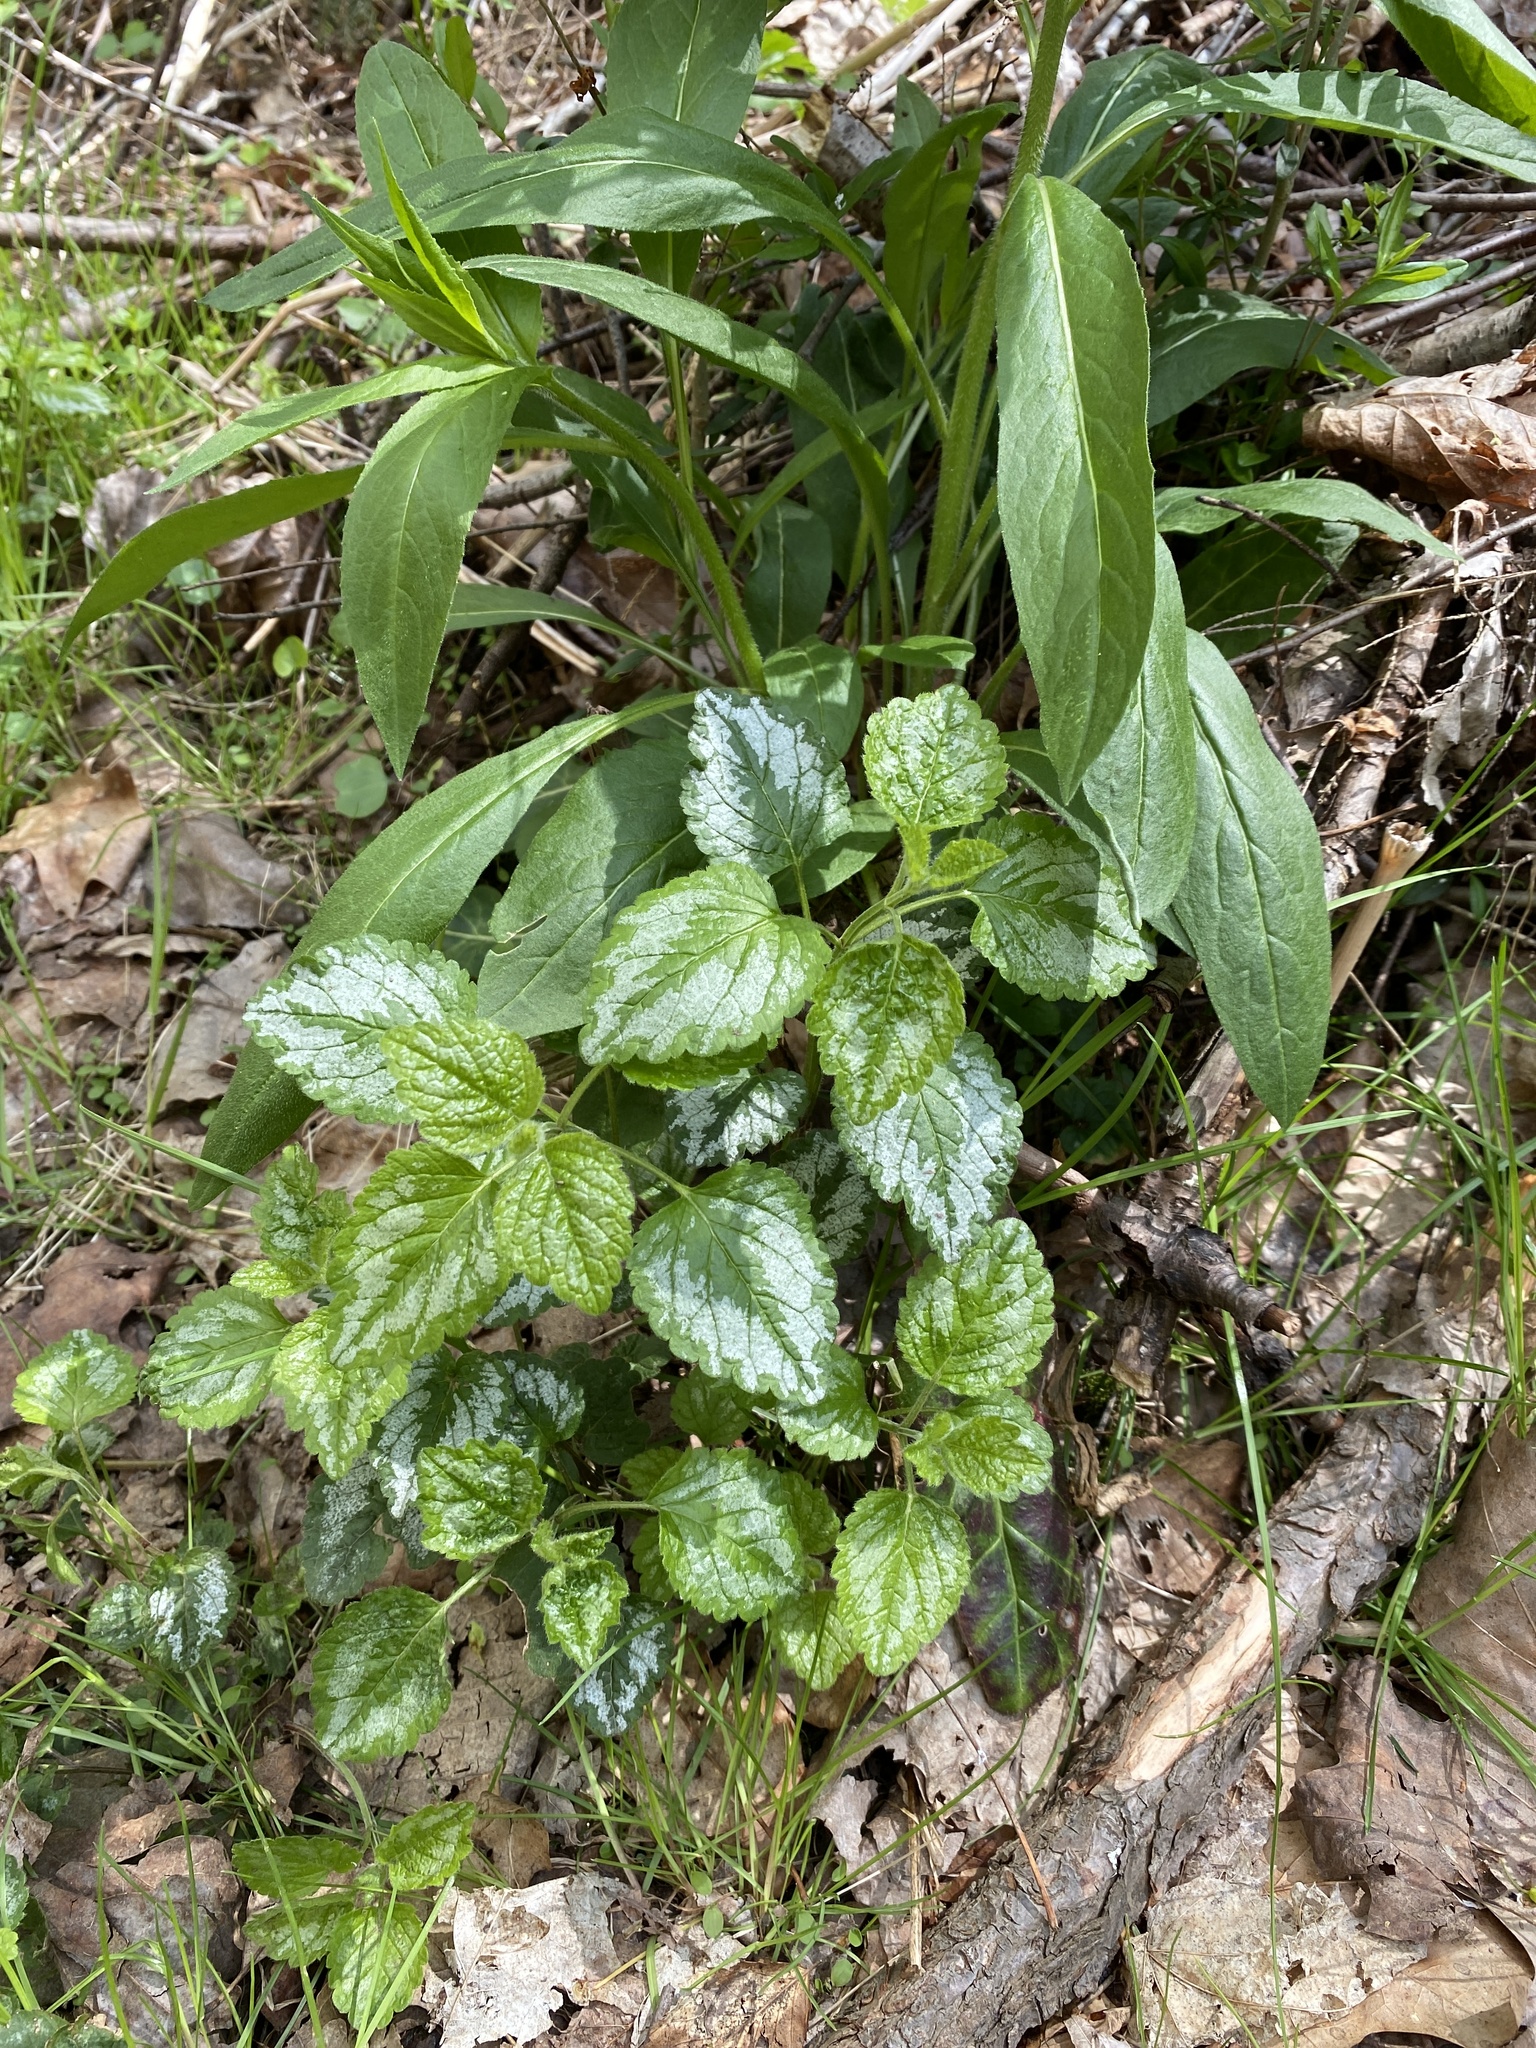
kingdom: Plantae
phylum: Tracheophyta
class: Magnoliopsida
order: Lamiales
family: Lamiaceae
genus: Lamium
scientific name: Lamium galeobdolon
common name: Yellow archangel
